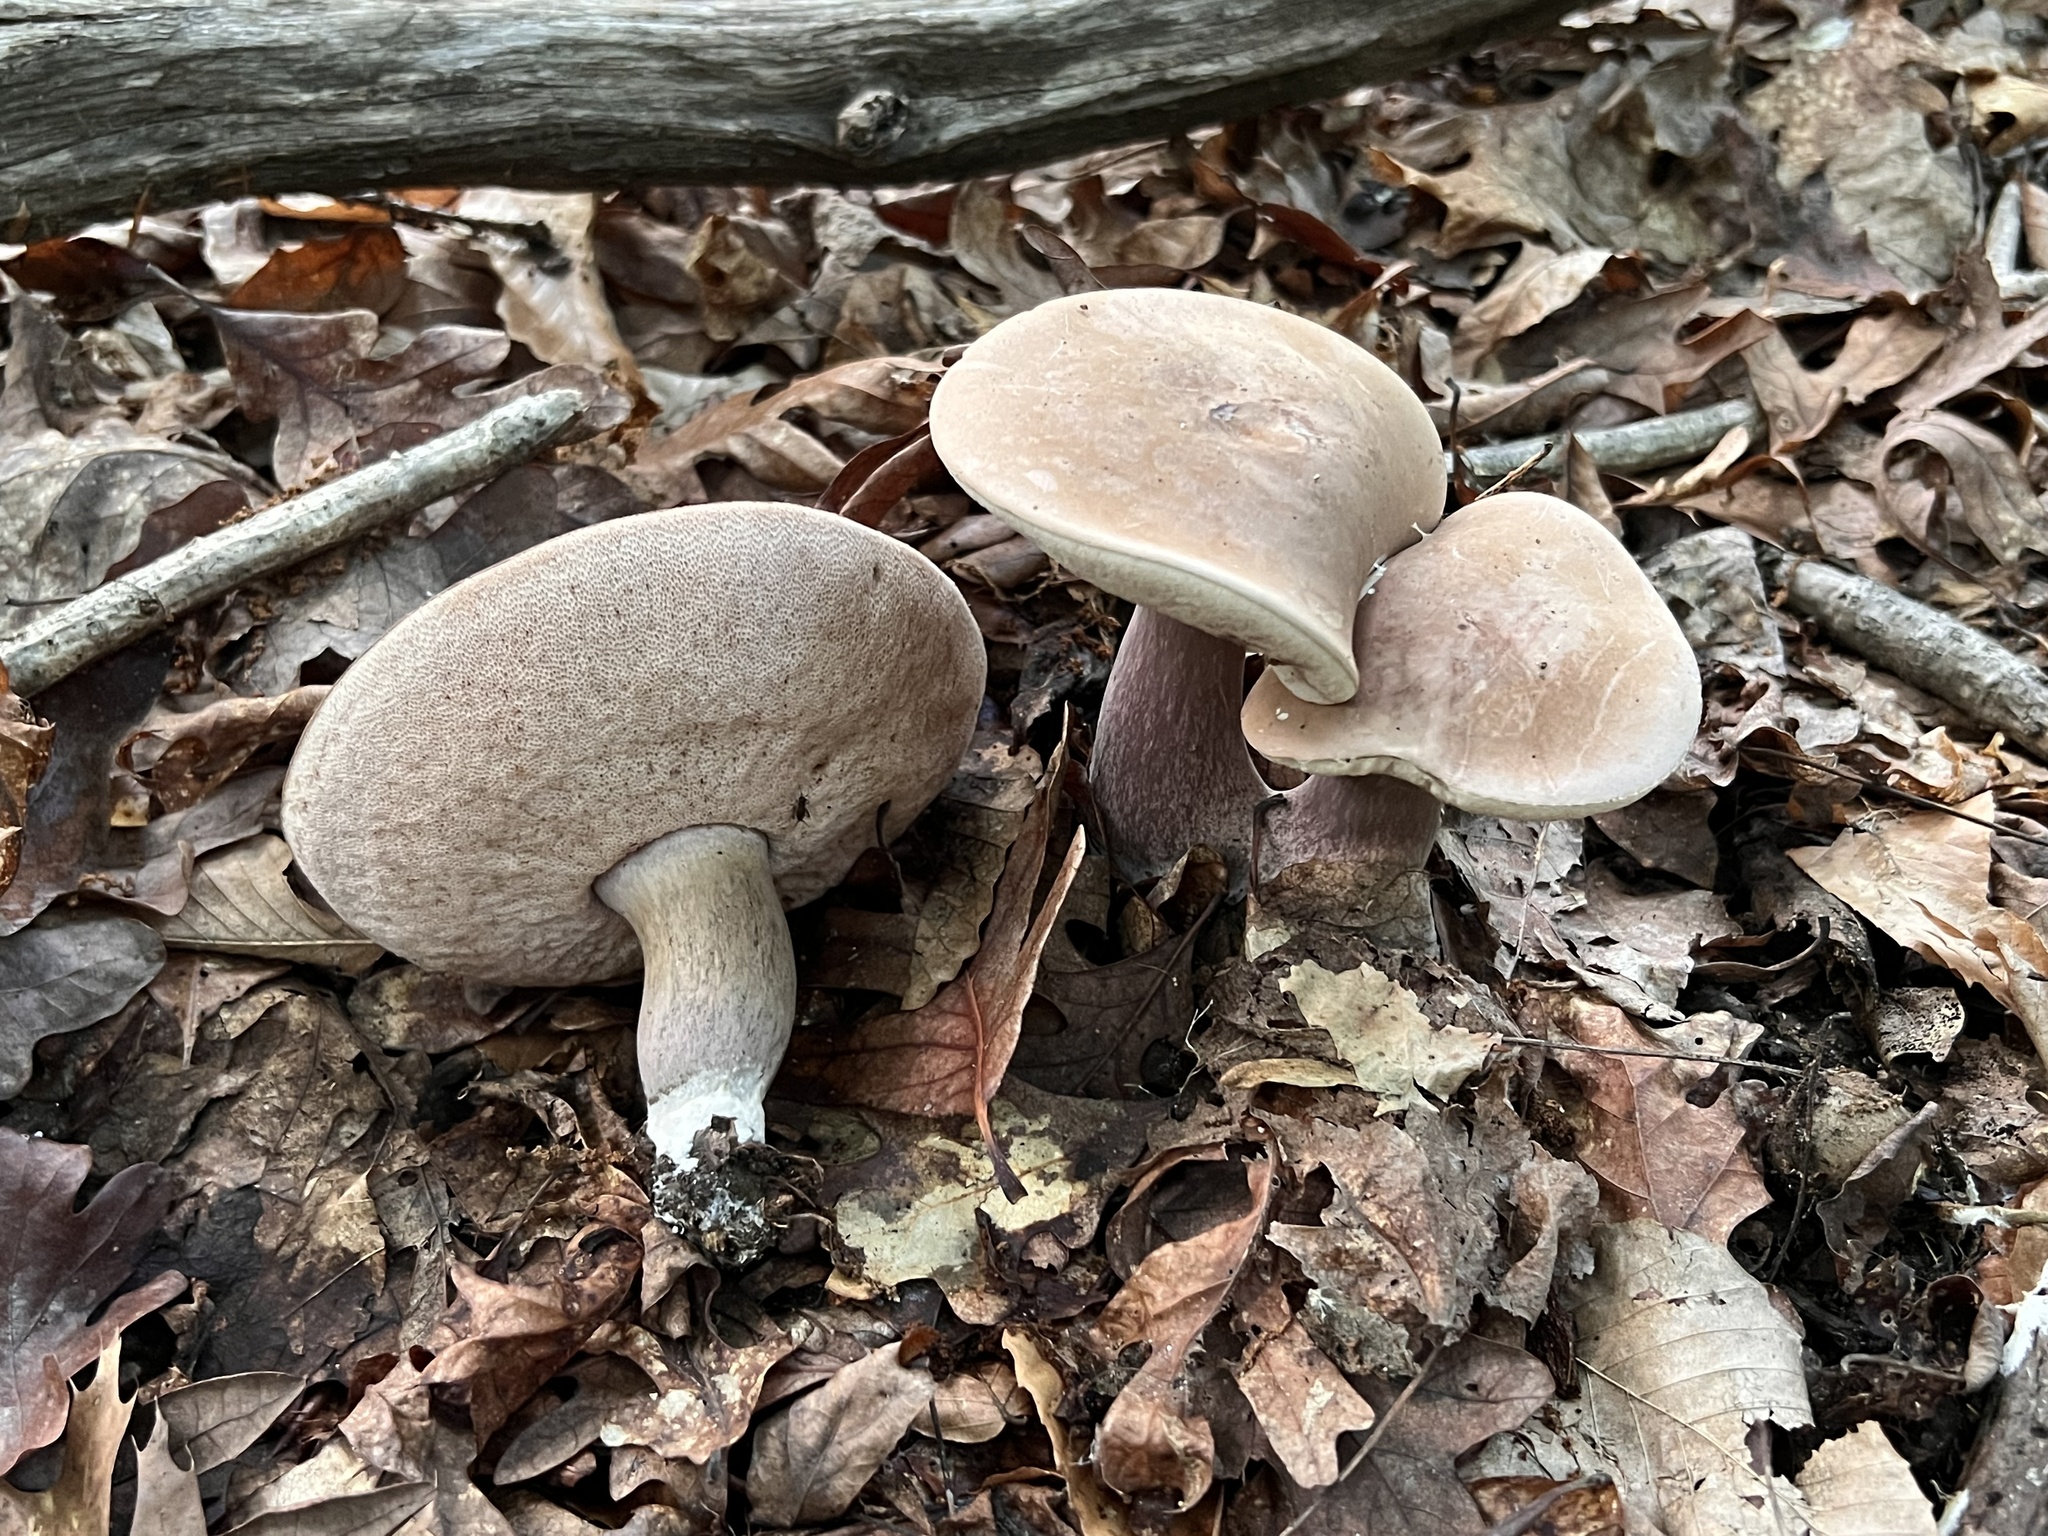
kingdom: Fungi
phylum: Basidiomycota
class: Agaricomycetes
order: Boletales
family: Boletaceae
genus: Tylopilus
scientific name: Tylopilus plumbeoviolaceus
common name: Violet gray bolete
